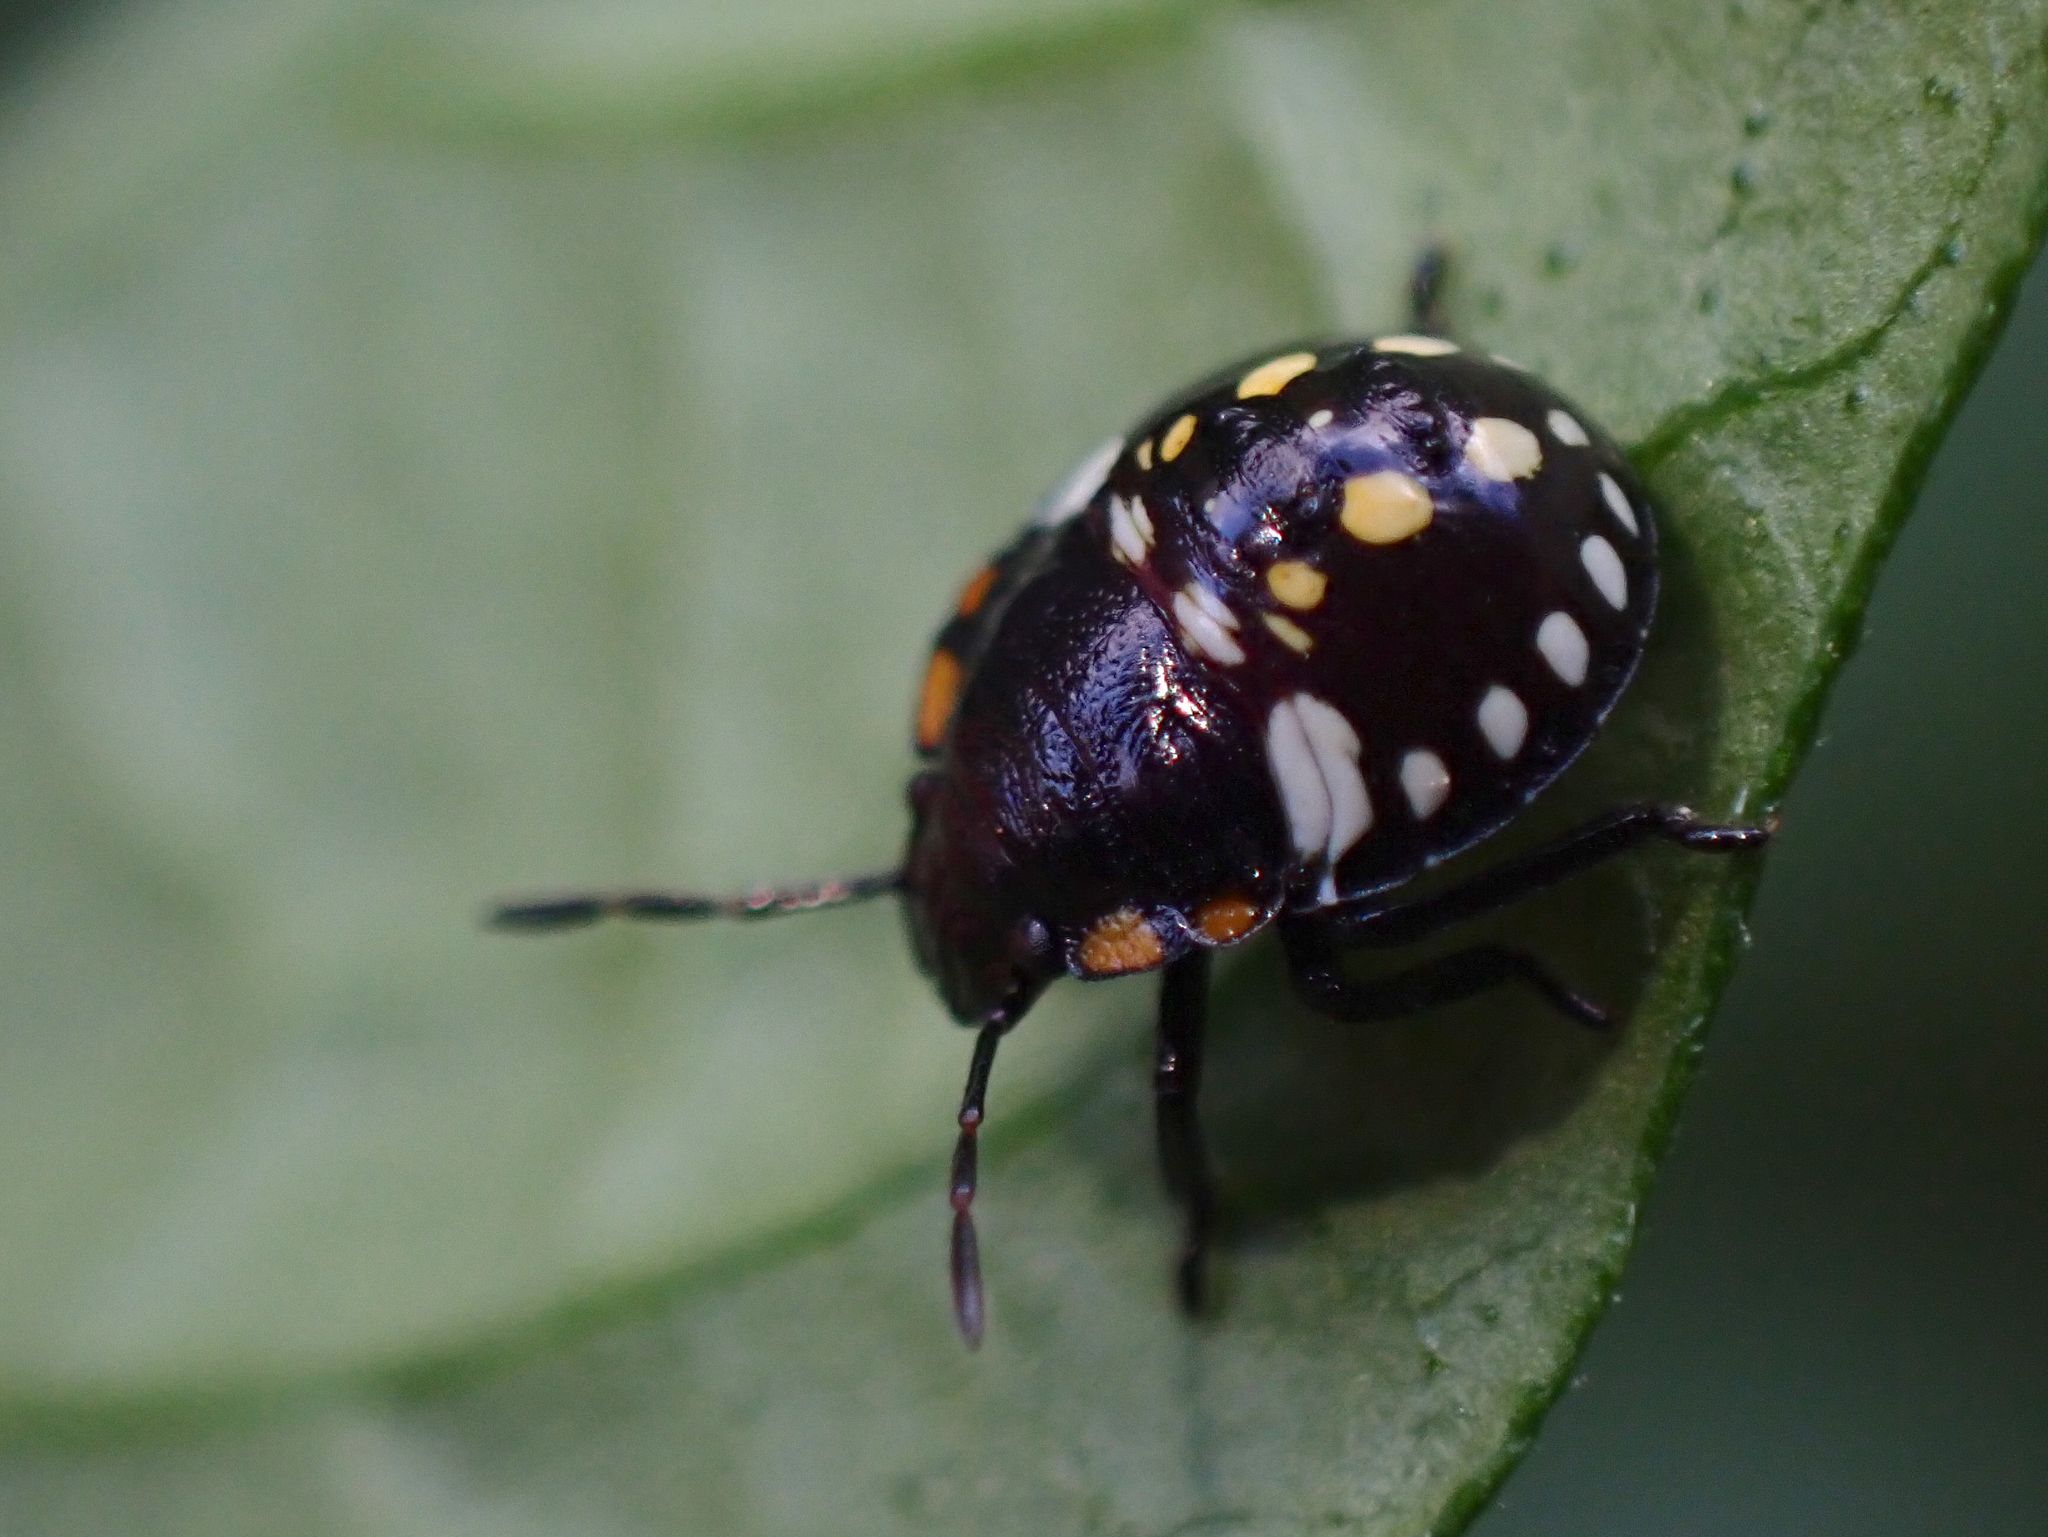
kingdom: Animalia
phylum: Arthropoda
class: Insecta
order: Hemiptera
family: Pentatomidae
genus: Nezara
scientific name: Nezara viridula
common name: Southern green stink bug
